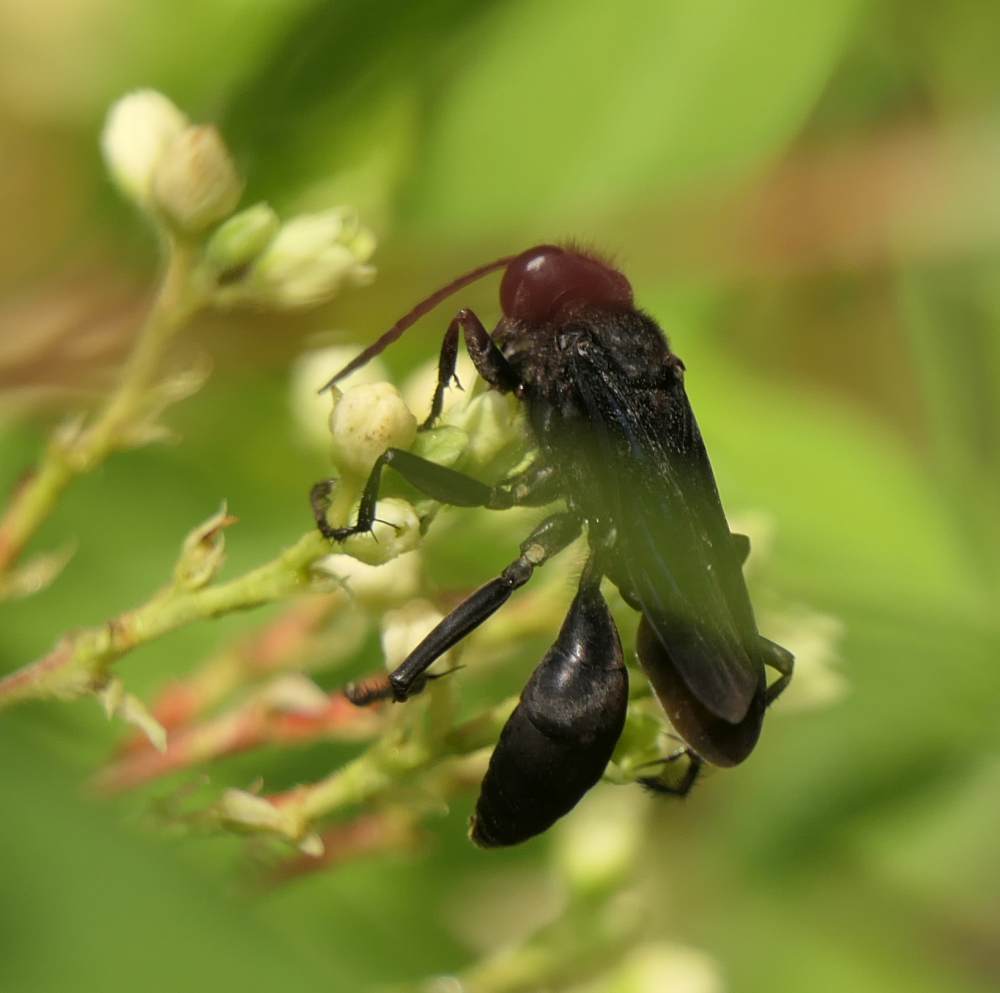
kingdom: Animalia
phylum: Arthropoda
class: Insecta
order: Hymenoptera
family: Sphecidae
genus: Sphex
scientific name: Sphex pensylvanicus
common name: Great black digger wasp
